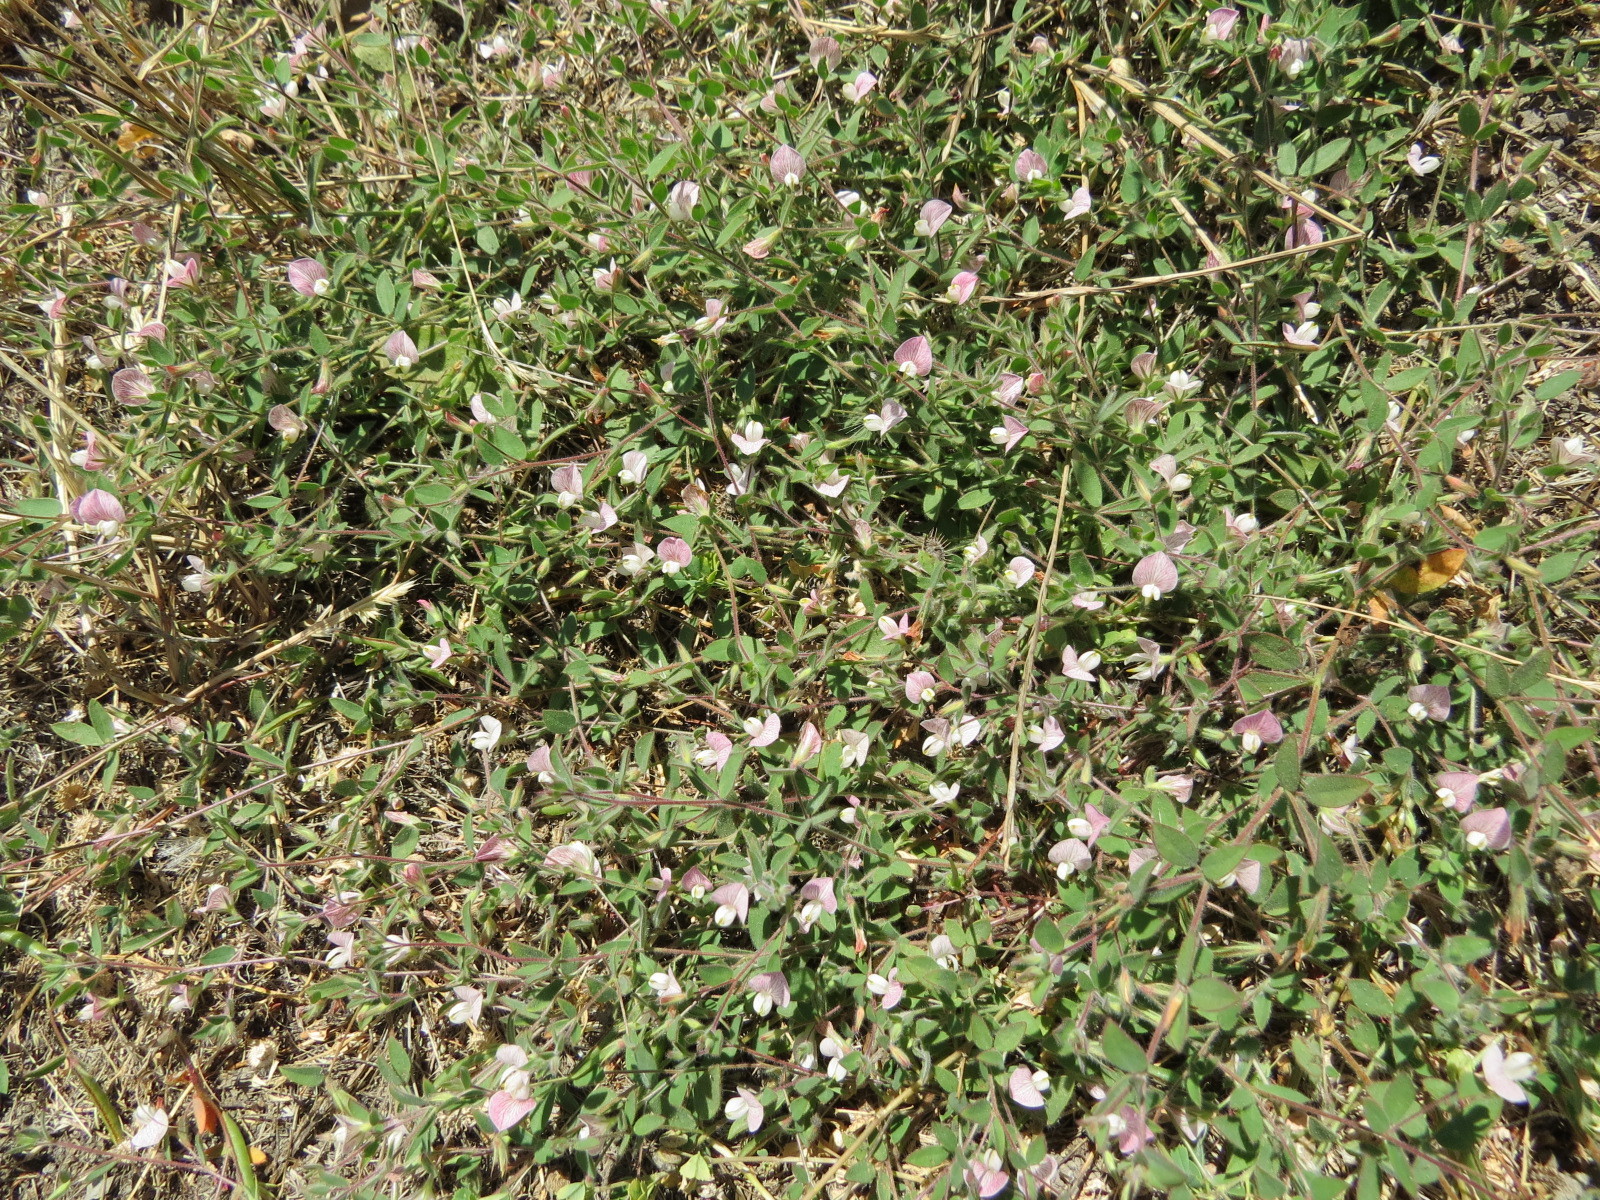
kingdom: Plantae
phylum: Tracheophyta
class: Magnoliopsida
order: Fabales
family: Fabaceae
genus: Acmispon
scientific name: Acmispon americanus
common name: American bird's-foot trefoil
